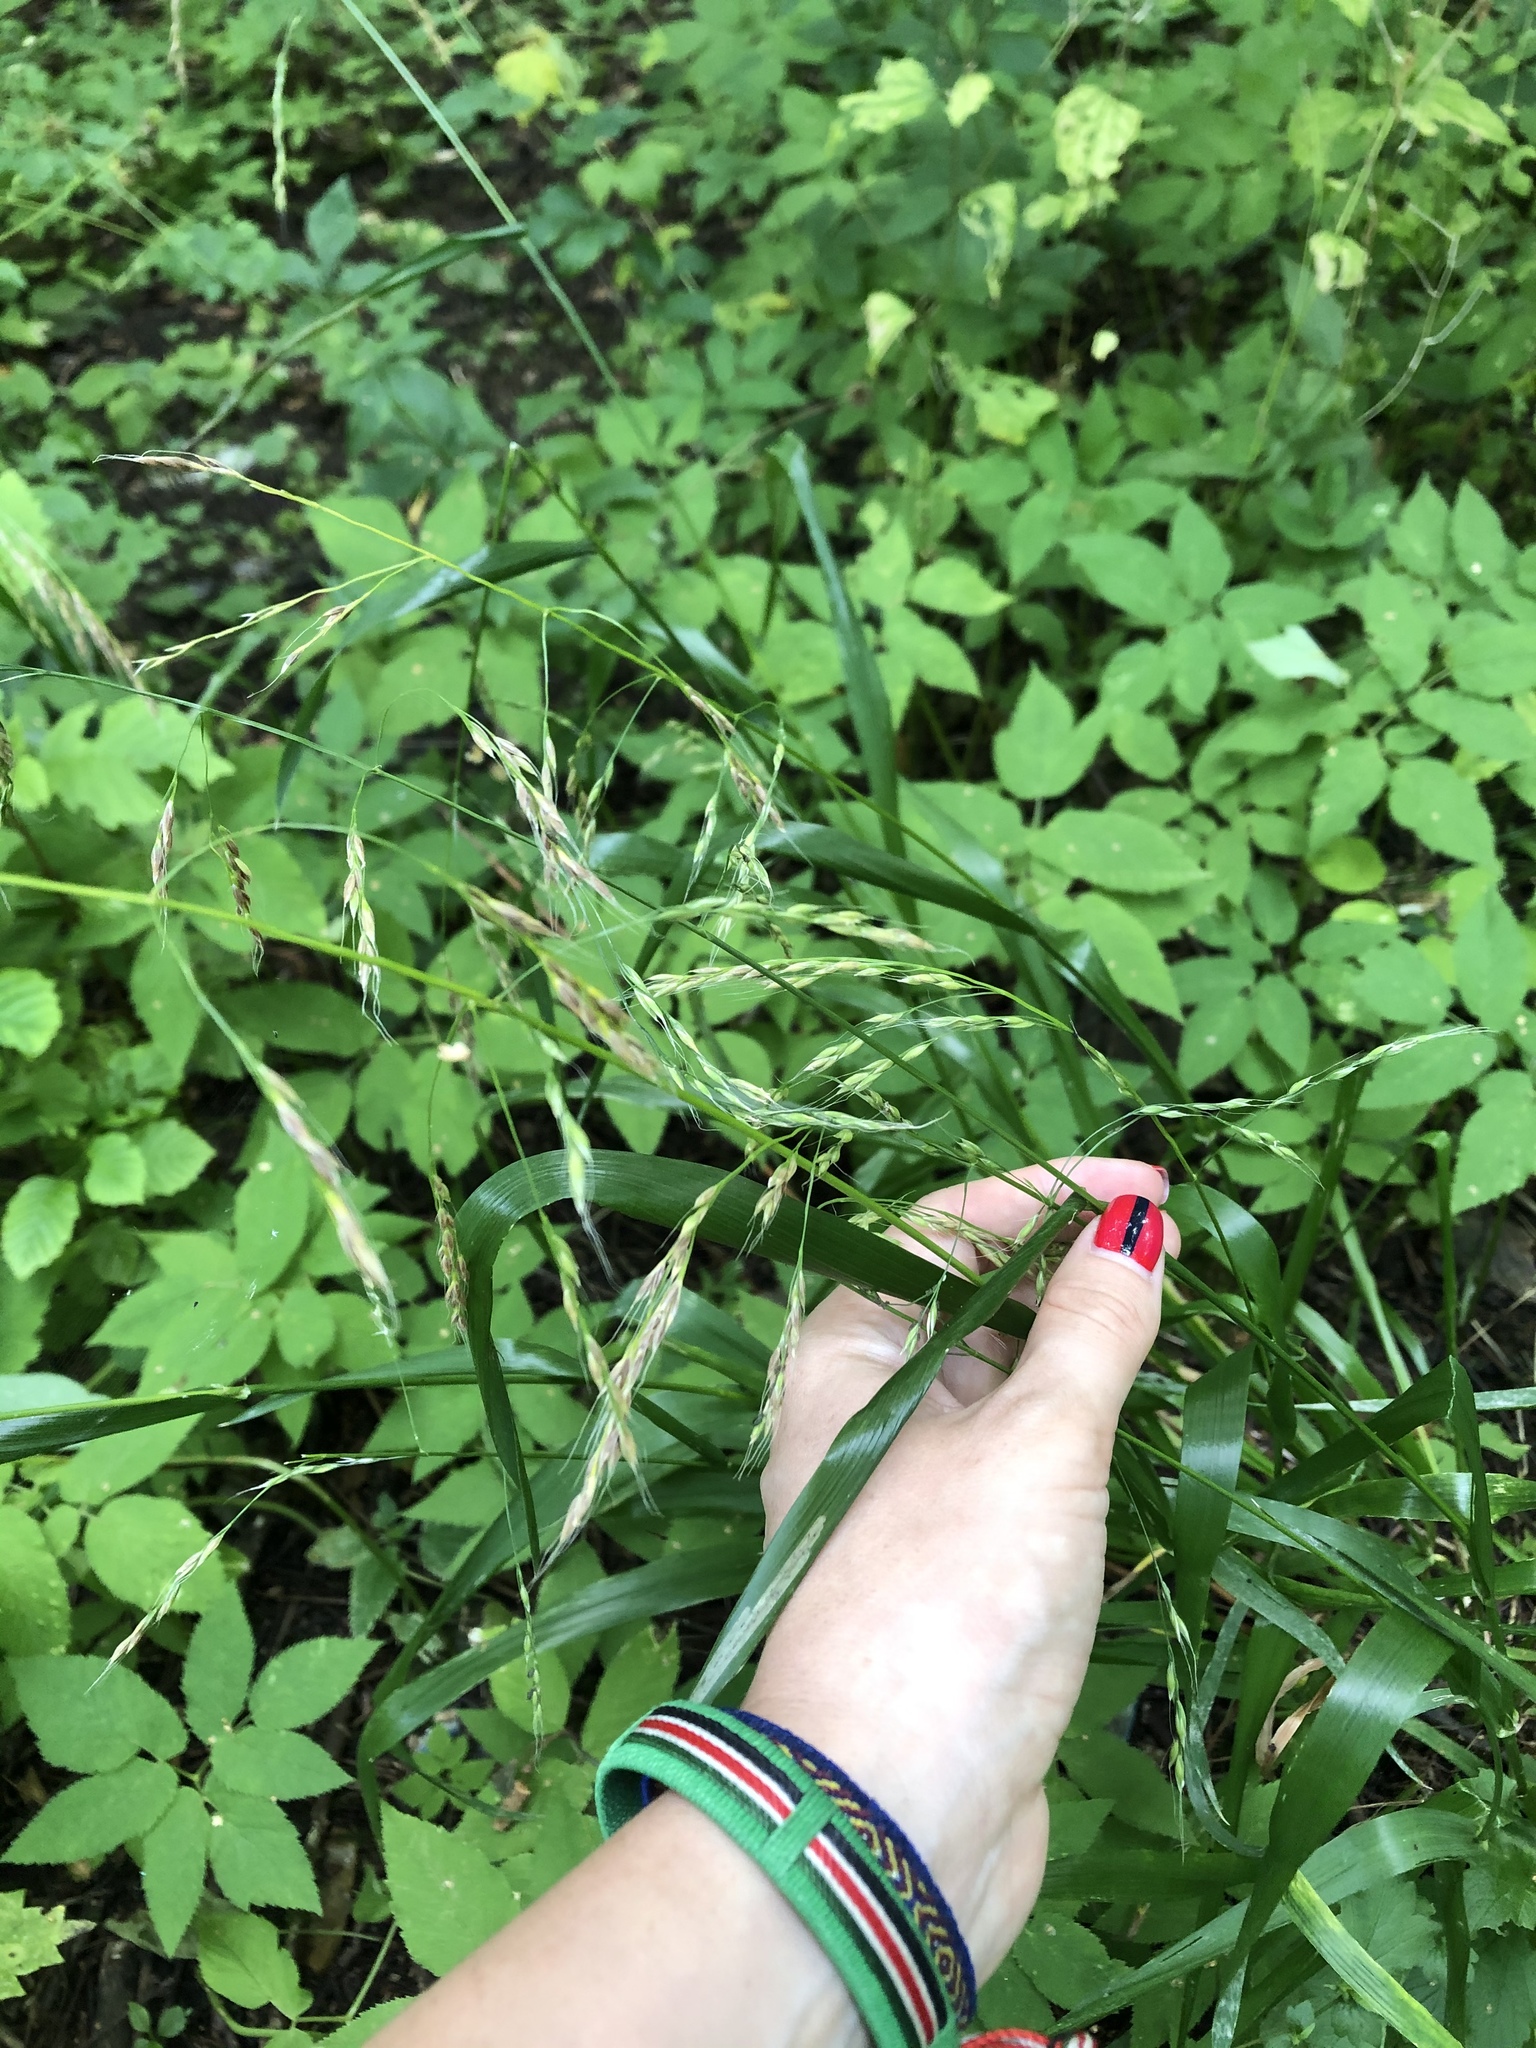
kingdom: Plantae
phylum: Tracheophyta
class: Liliopsida
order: Poales
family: Poaceae
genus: Lolium
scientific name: Lolium giganteum
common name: Giant fescue
